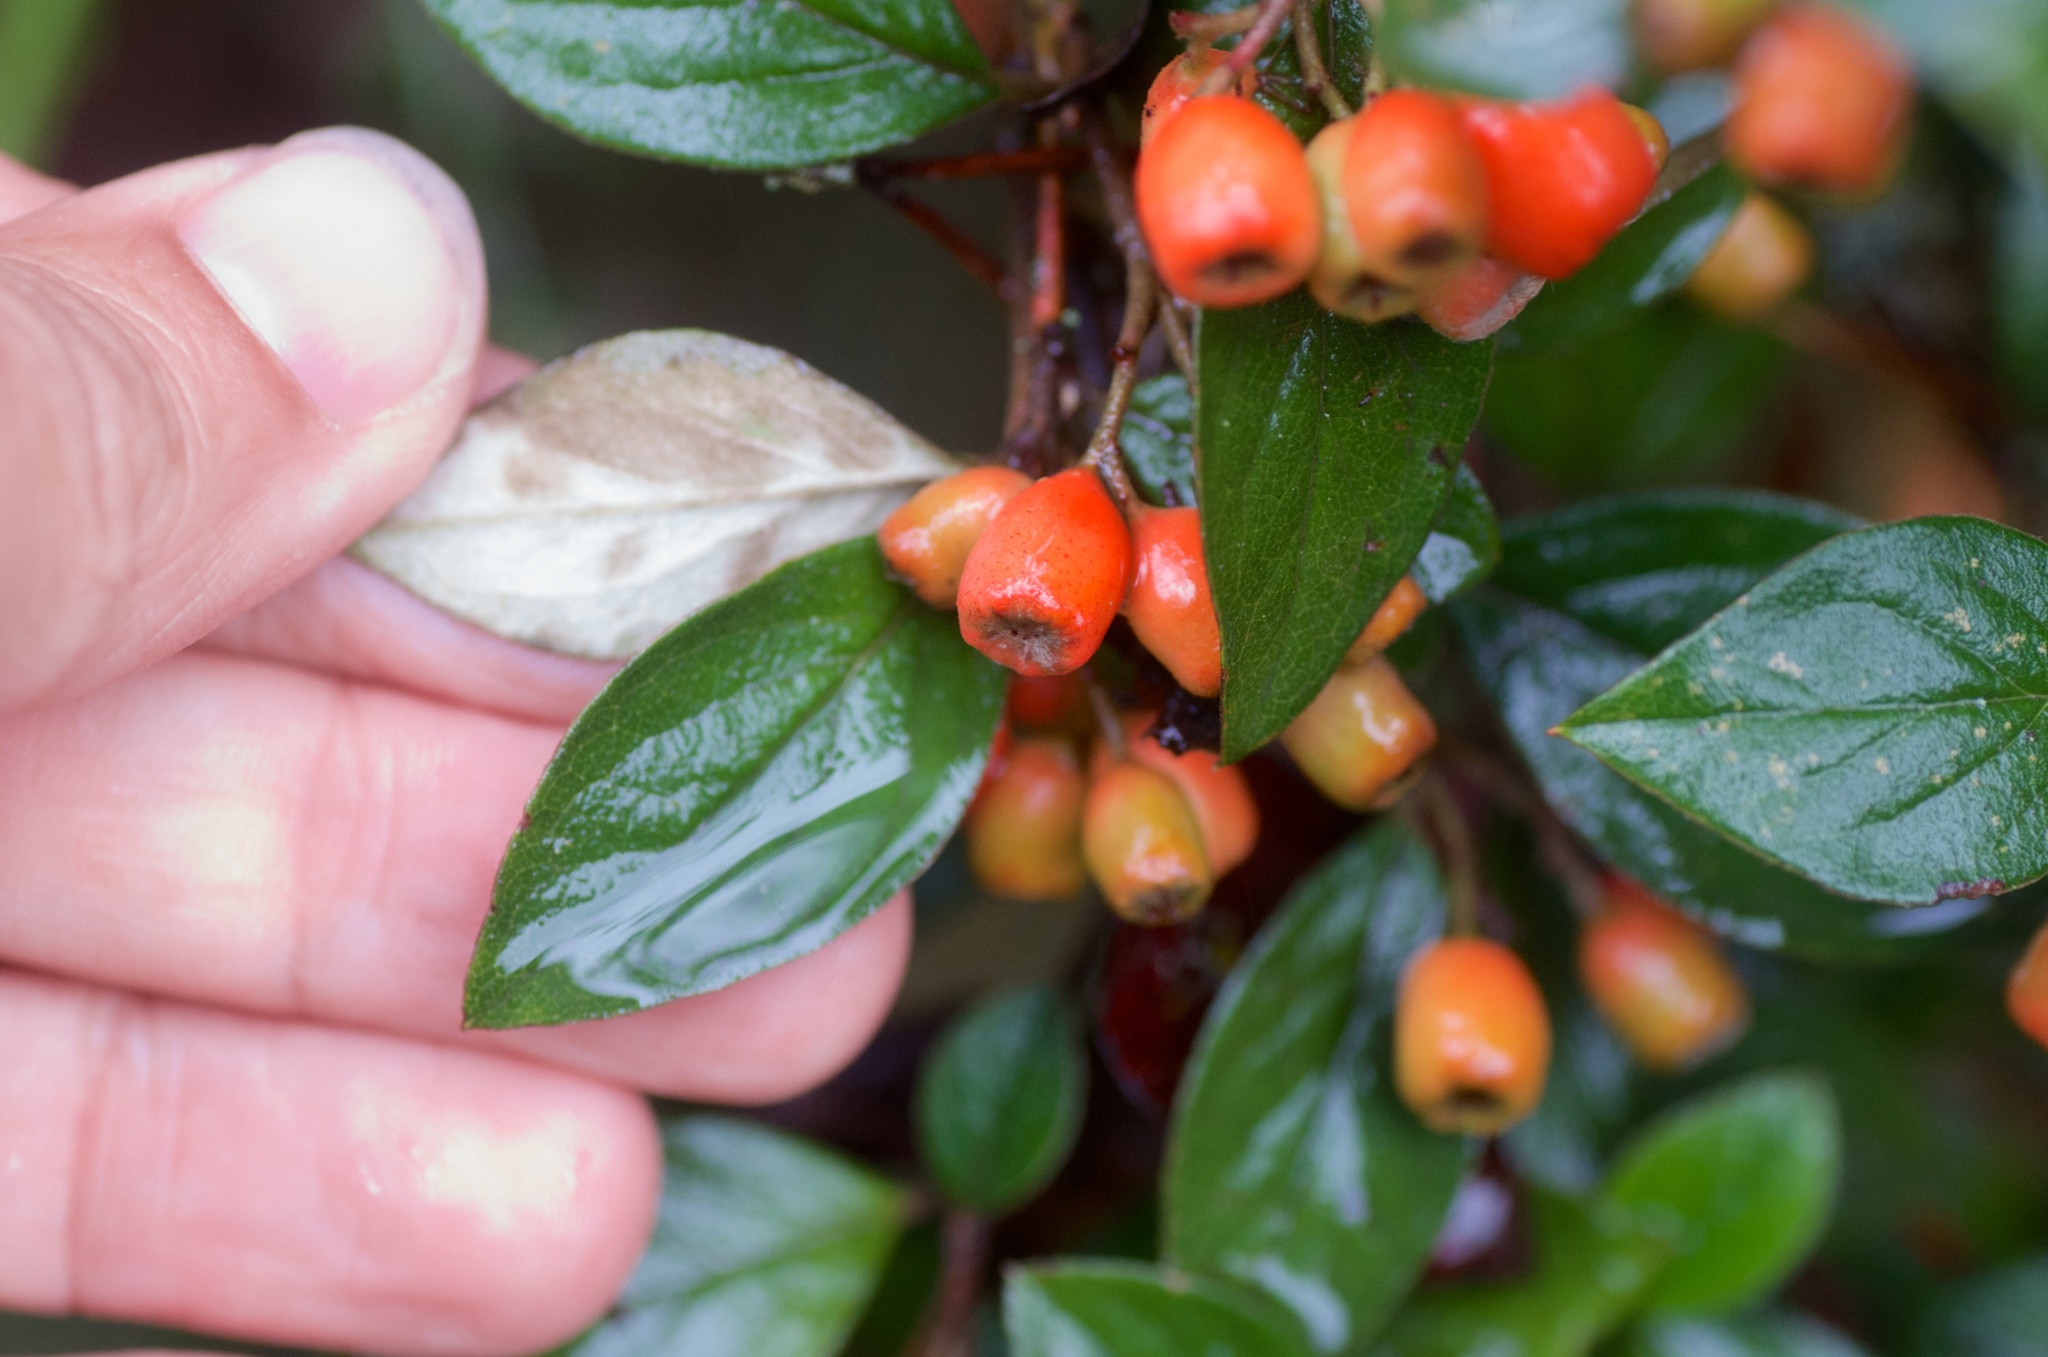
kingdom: Plantae
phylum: Tracheophyta
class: Magnoliopsida
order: Rosales
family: Rosaceae
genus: Cotoneaster
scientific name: Cotoneaster simonsii
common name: Himalayan cotoneaster
